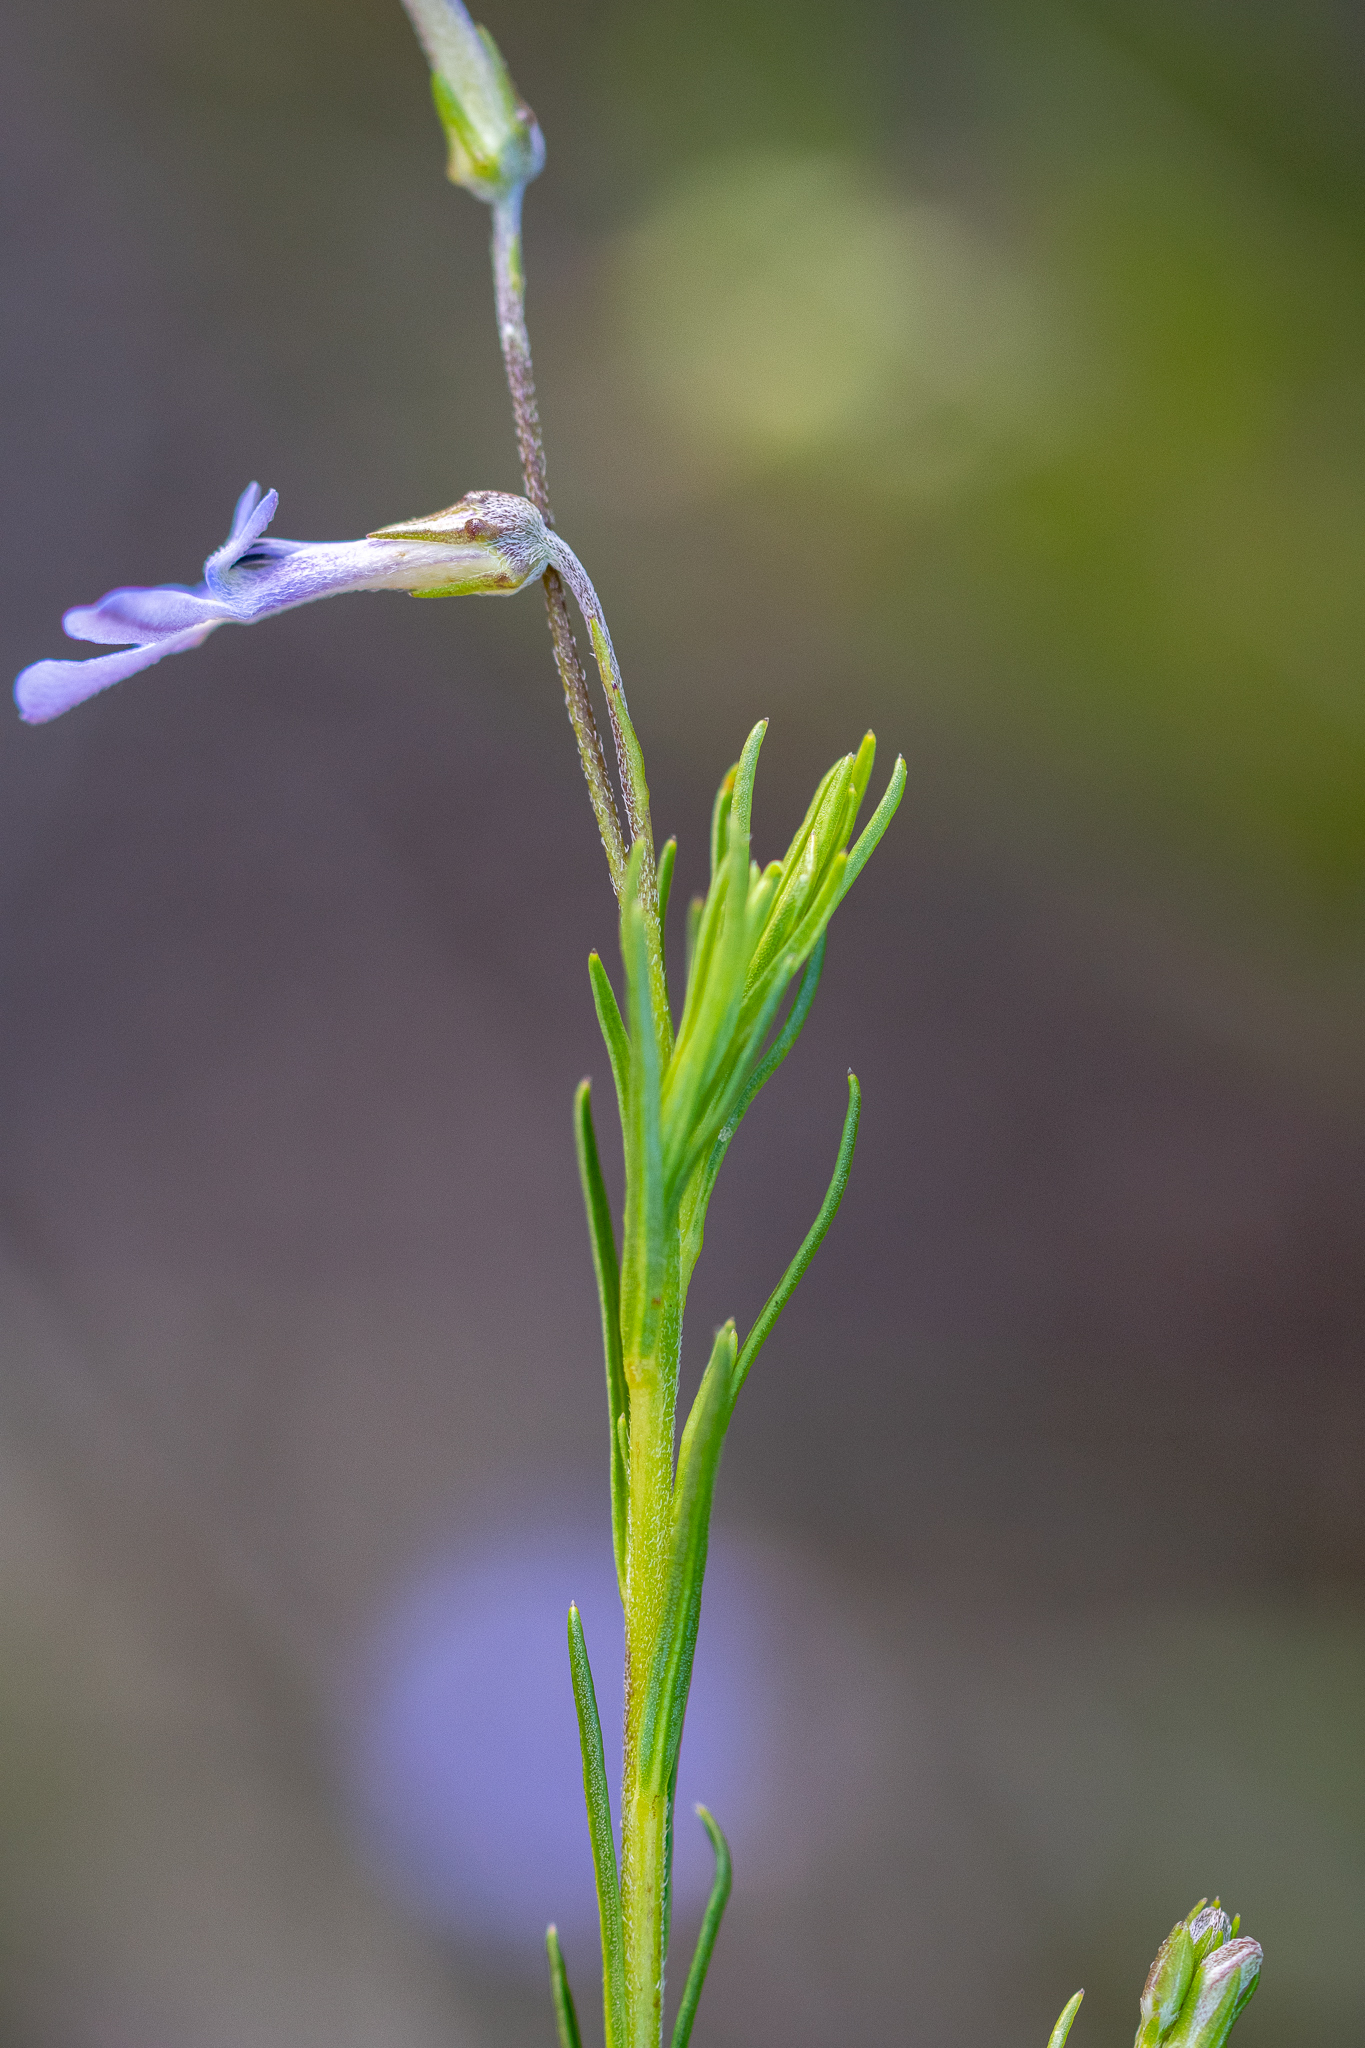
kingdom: Plantae
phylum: Tracheophyta
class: Magnoliopsida
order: Asterales
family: Campanulaceae
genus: Lobelia
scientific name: Lobelia pinifolia
